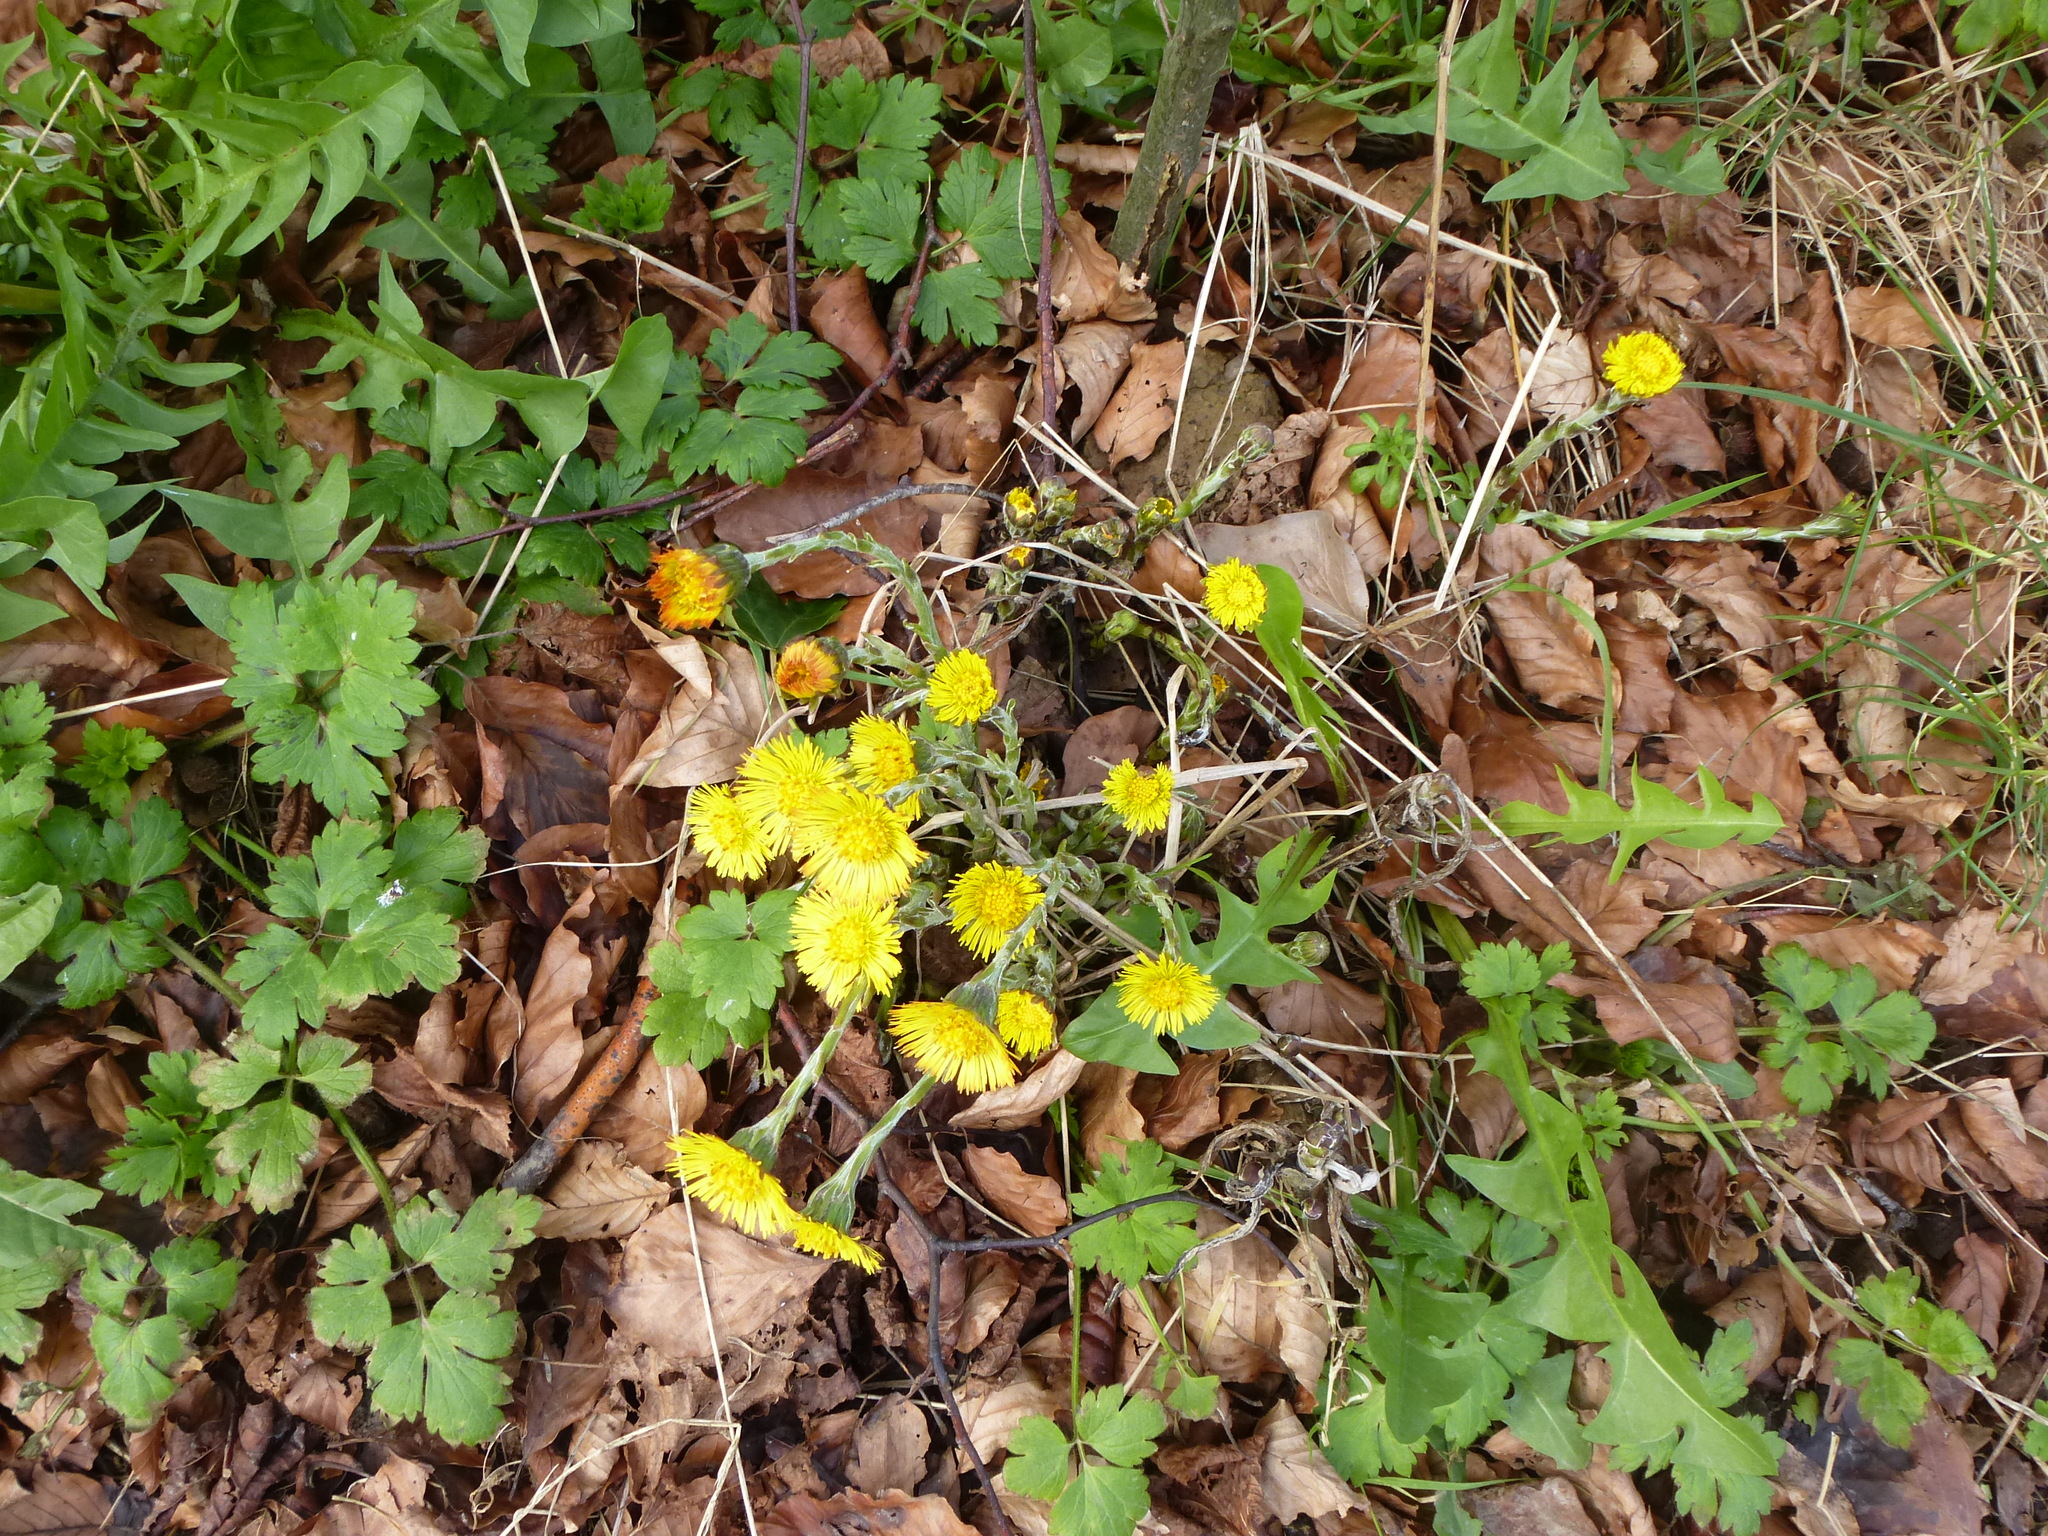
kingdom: Plantae
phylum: Tracheophyta
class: Magnoliopsida
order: Asterales
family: Asteraceae
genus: Tussilago
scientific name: Tussilago farfara
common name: Coltsfoot
